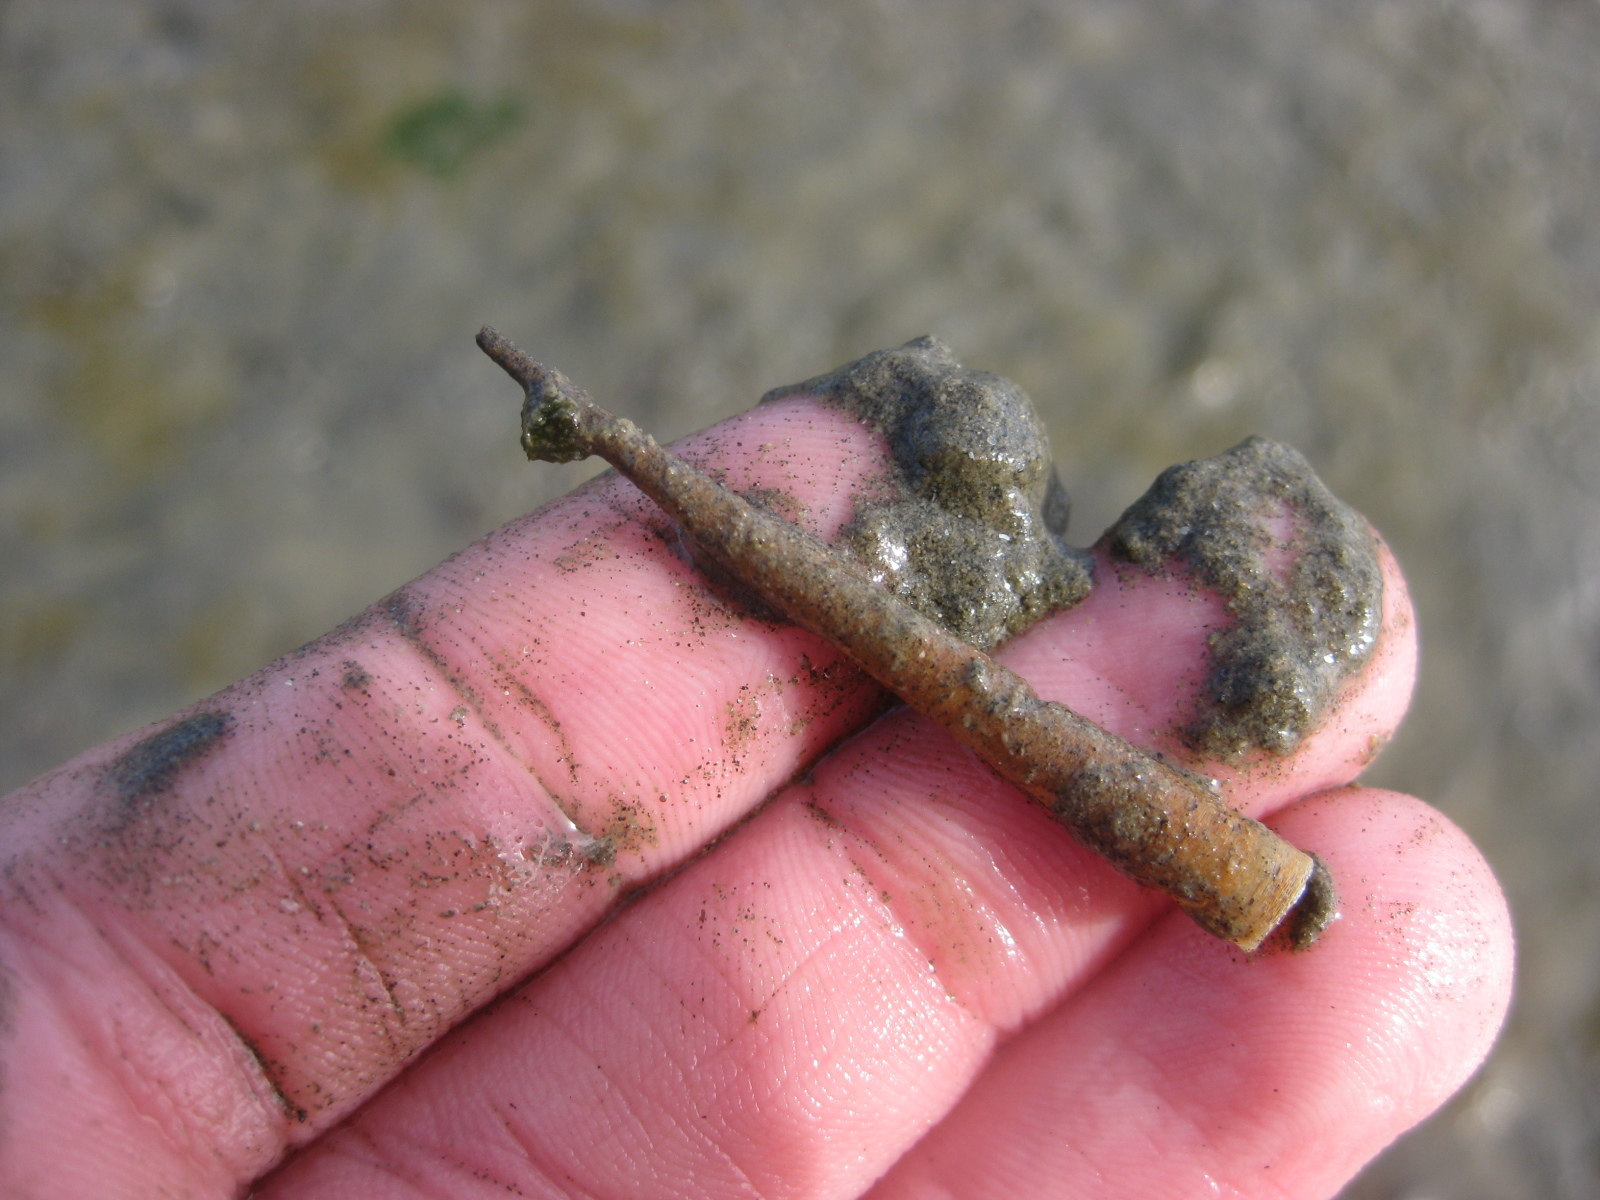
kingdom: Animalia
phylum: Annelida
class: Polychaeta
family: Pectinariidae
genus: Lagis
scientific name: Lagis australis
